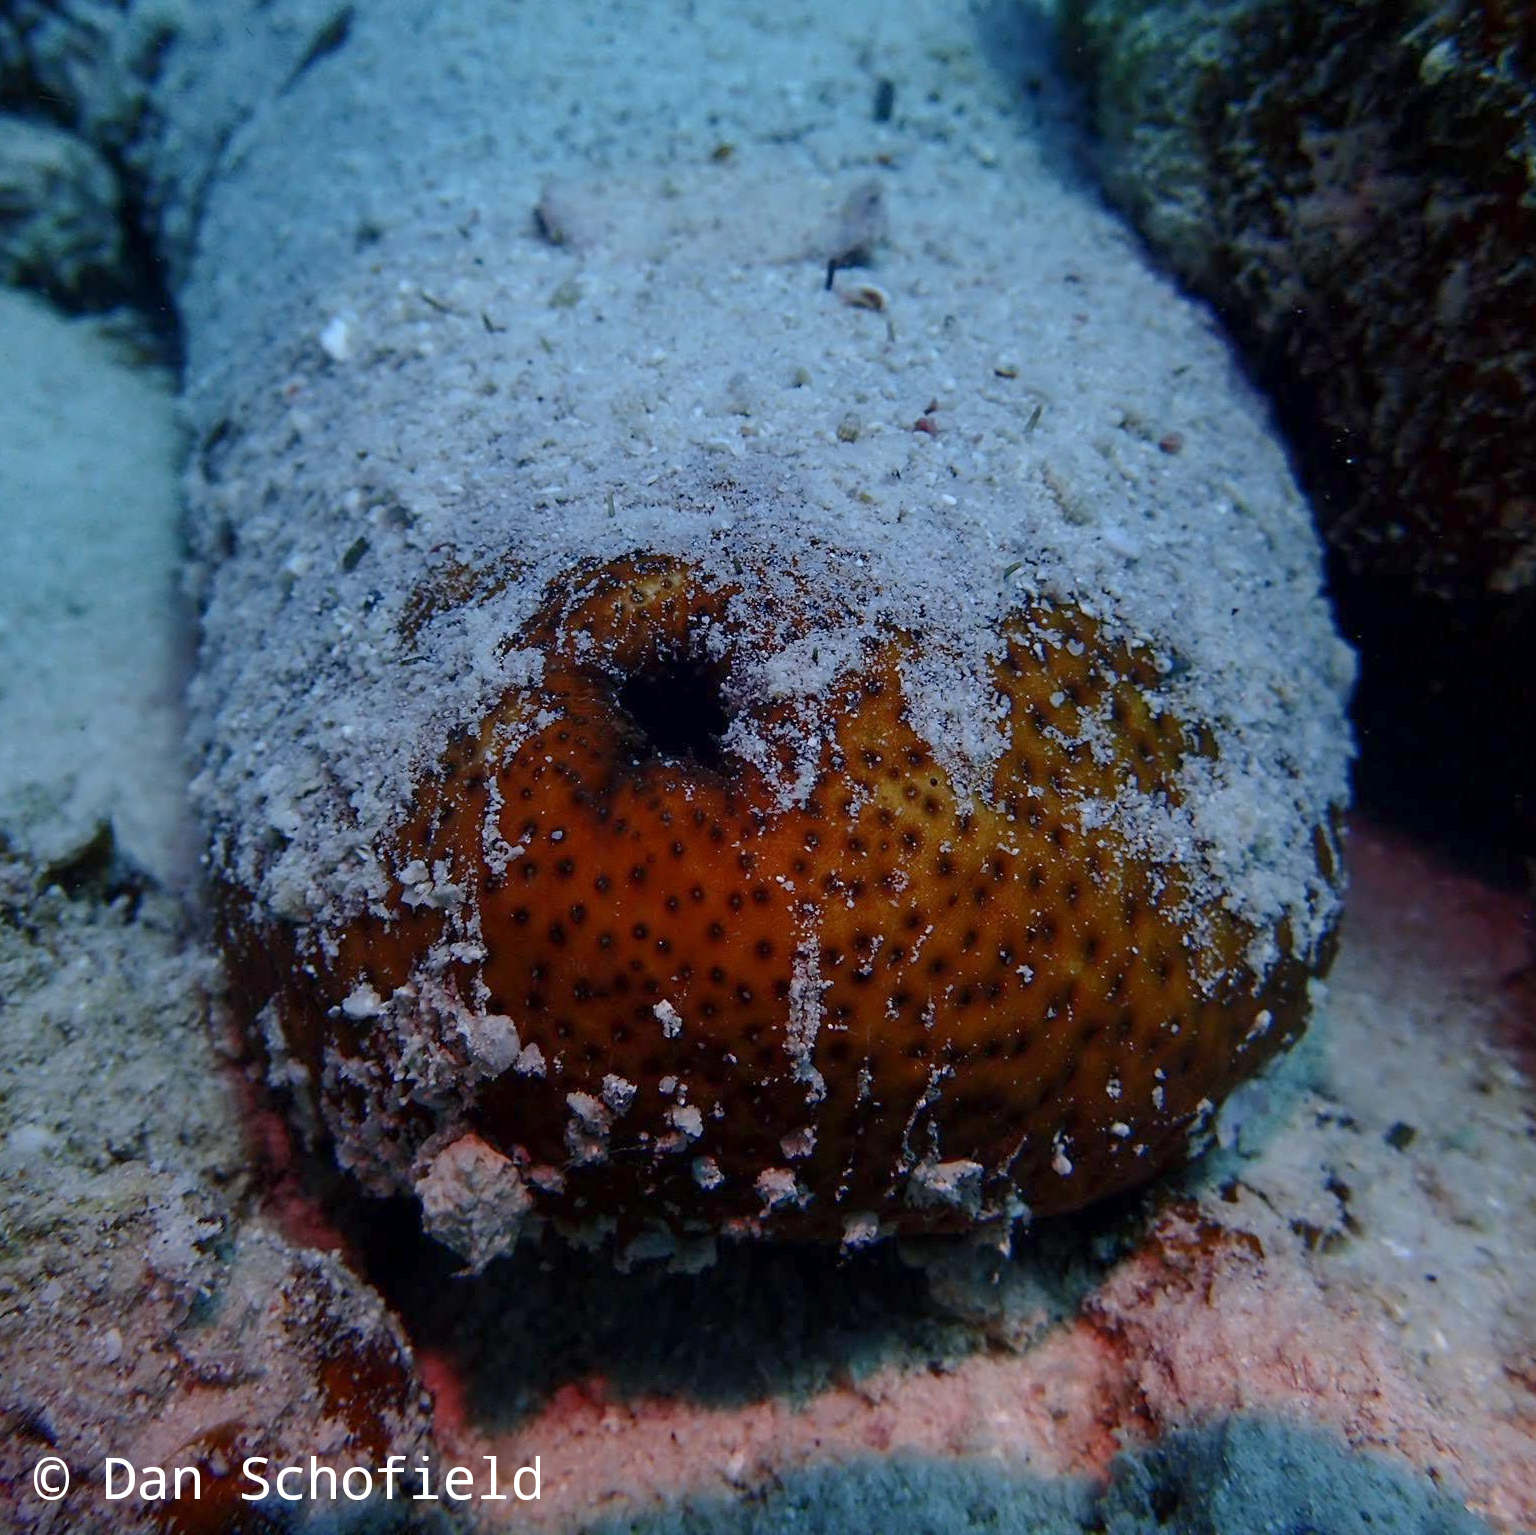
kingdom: Animalia
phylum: Echinodermata
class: Holothuroidea
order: Holothuriida
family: Holothuriidae
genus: Bohadschia
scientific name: Bohadschia vitiensis
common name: Brown sandfish
